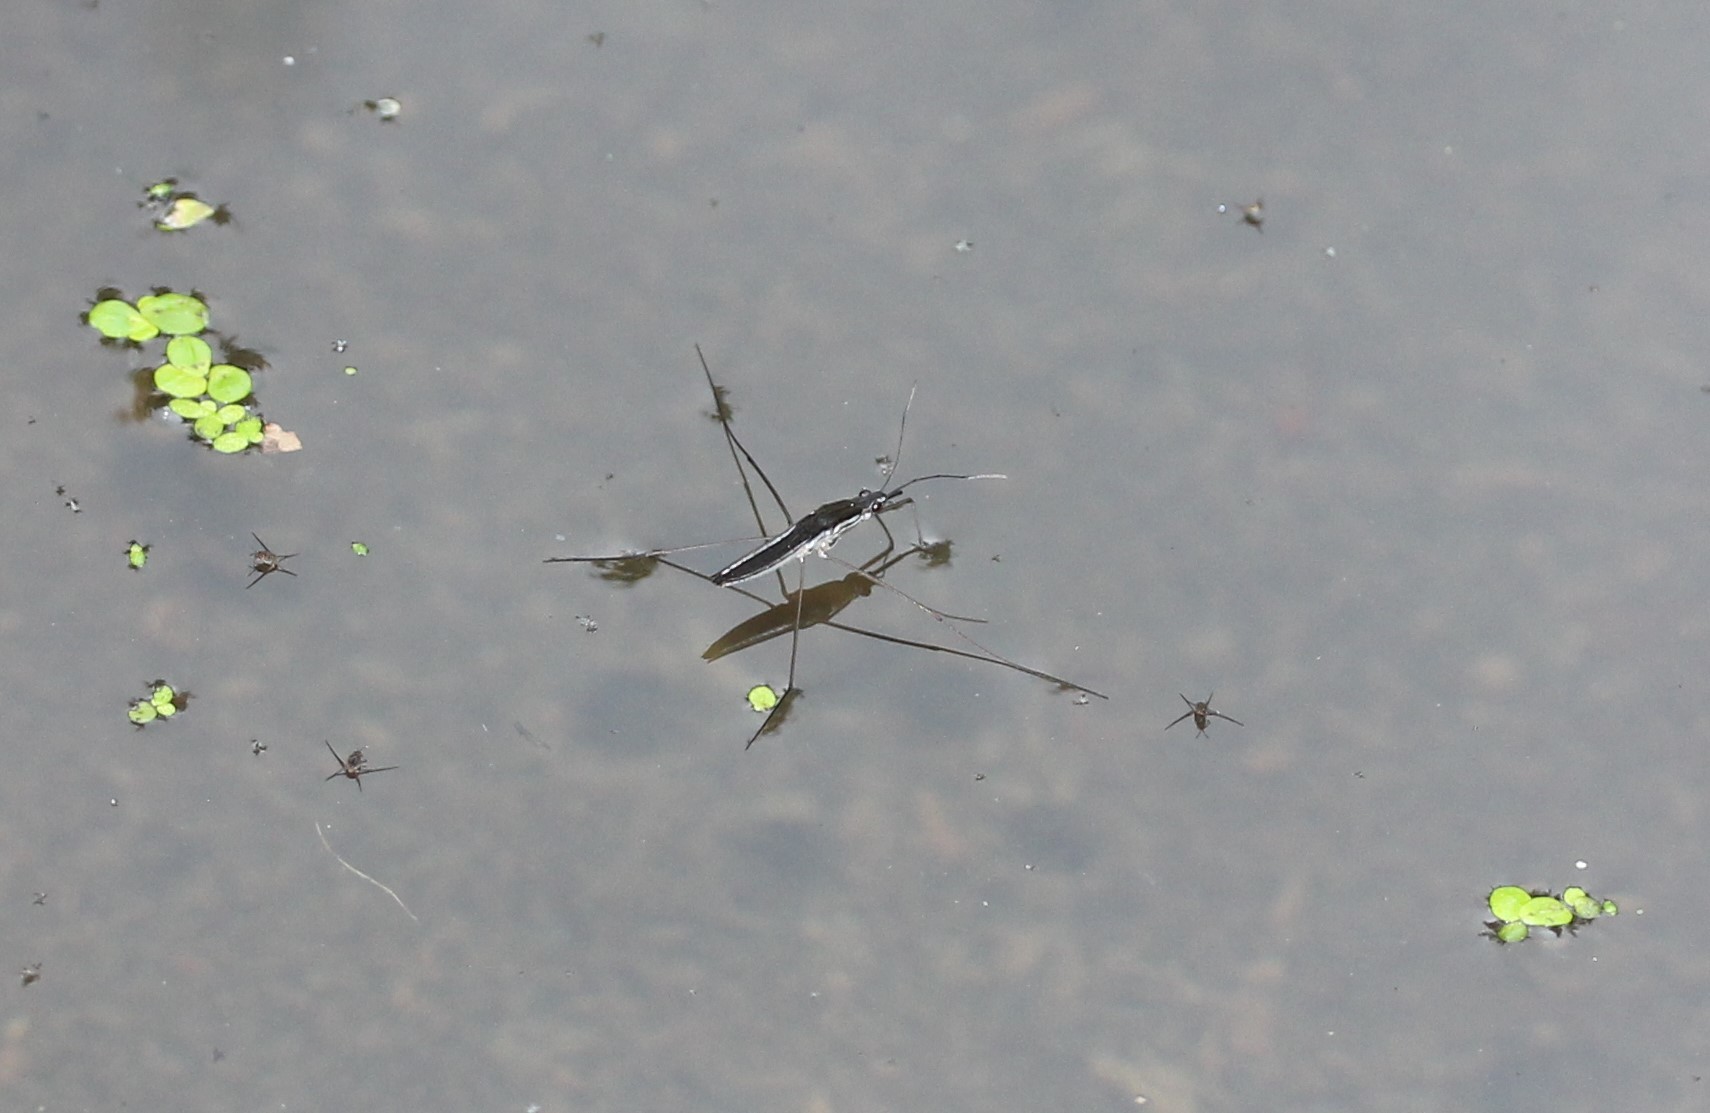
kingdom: Animalia
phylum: Arthropoda
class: Insecta
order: Hemiptera
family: Gerridae
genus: Limnoporus
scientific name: Limnoporus canaliculatus
